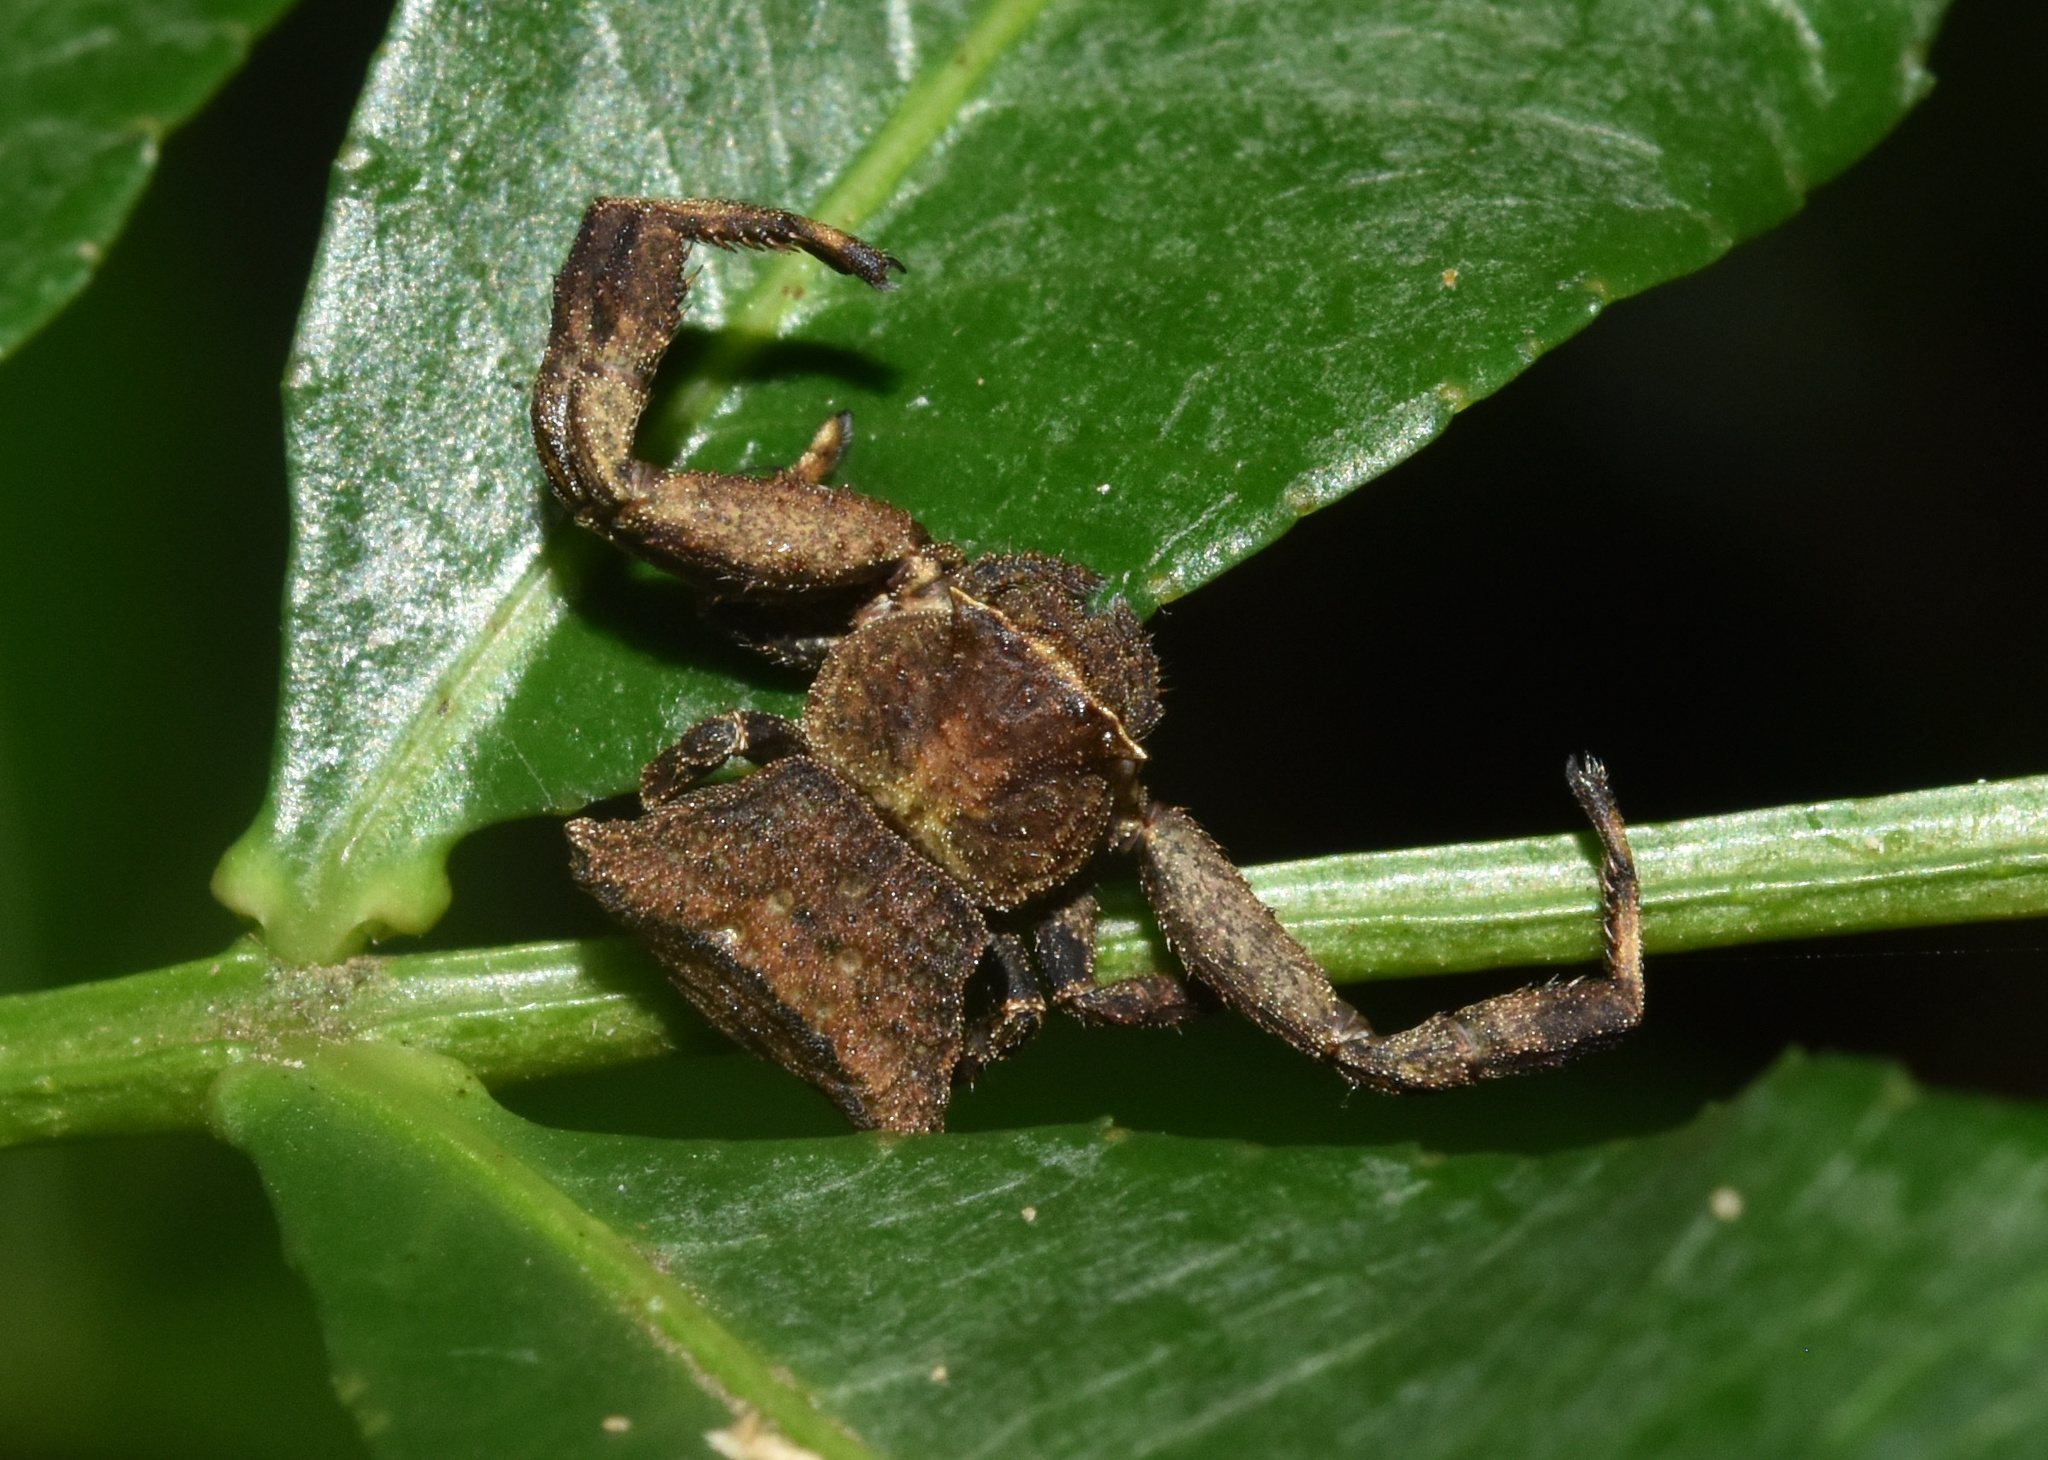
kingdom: Animalia
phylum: Arthropoda
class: Arachnida
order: Araneae
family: Thomisidae
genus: Thomisus
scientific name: Thomisus scrupeus
